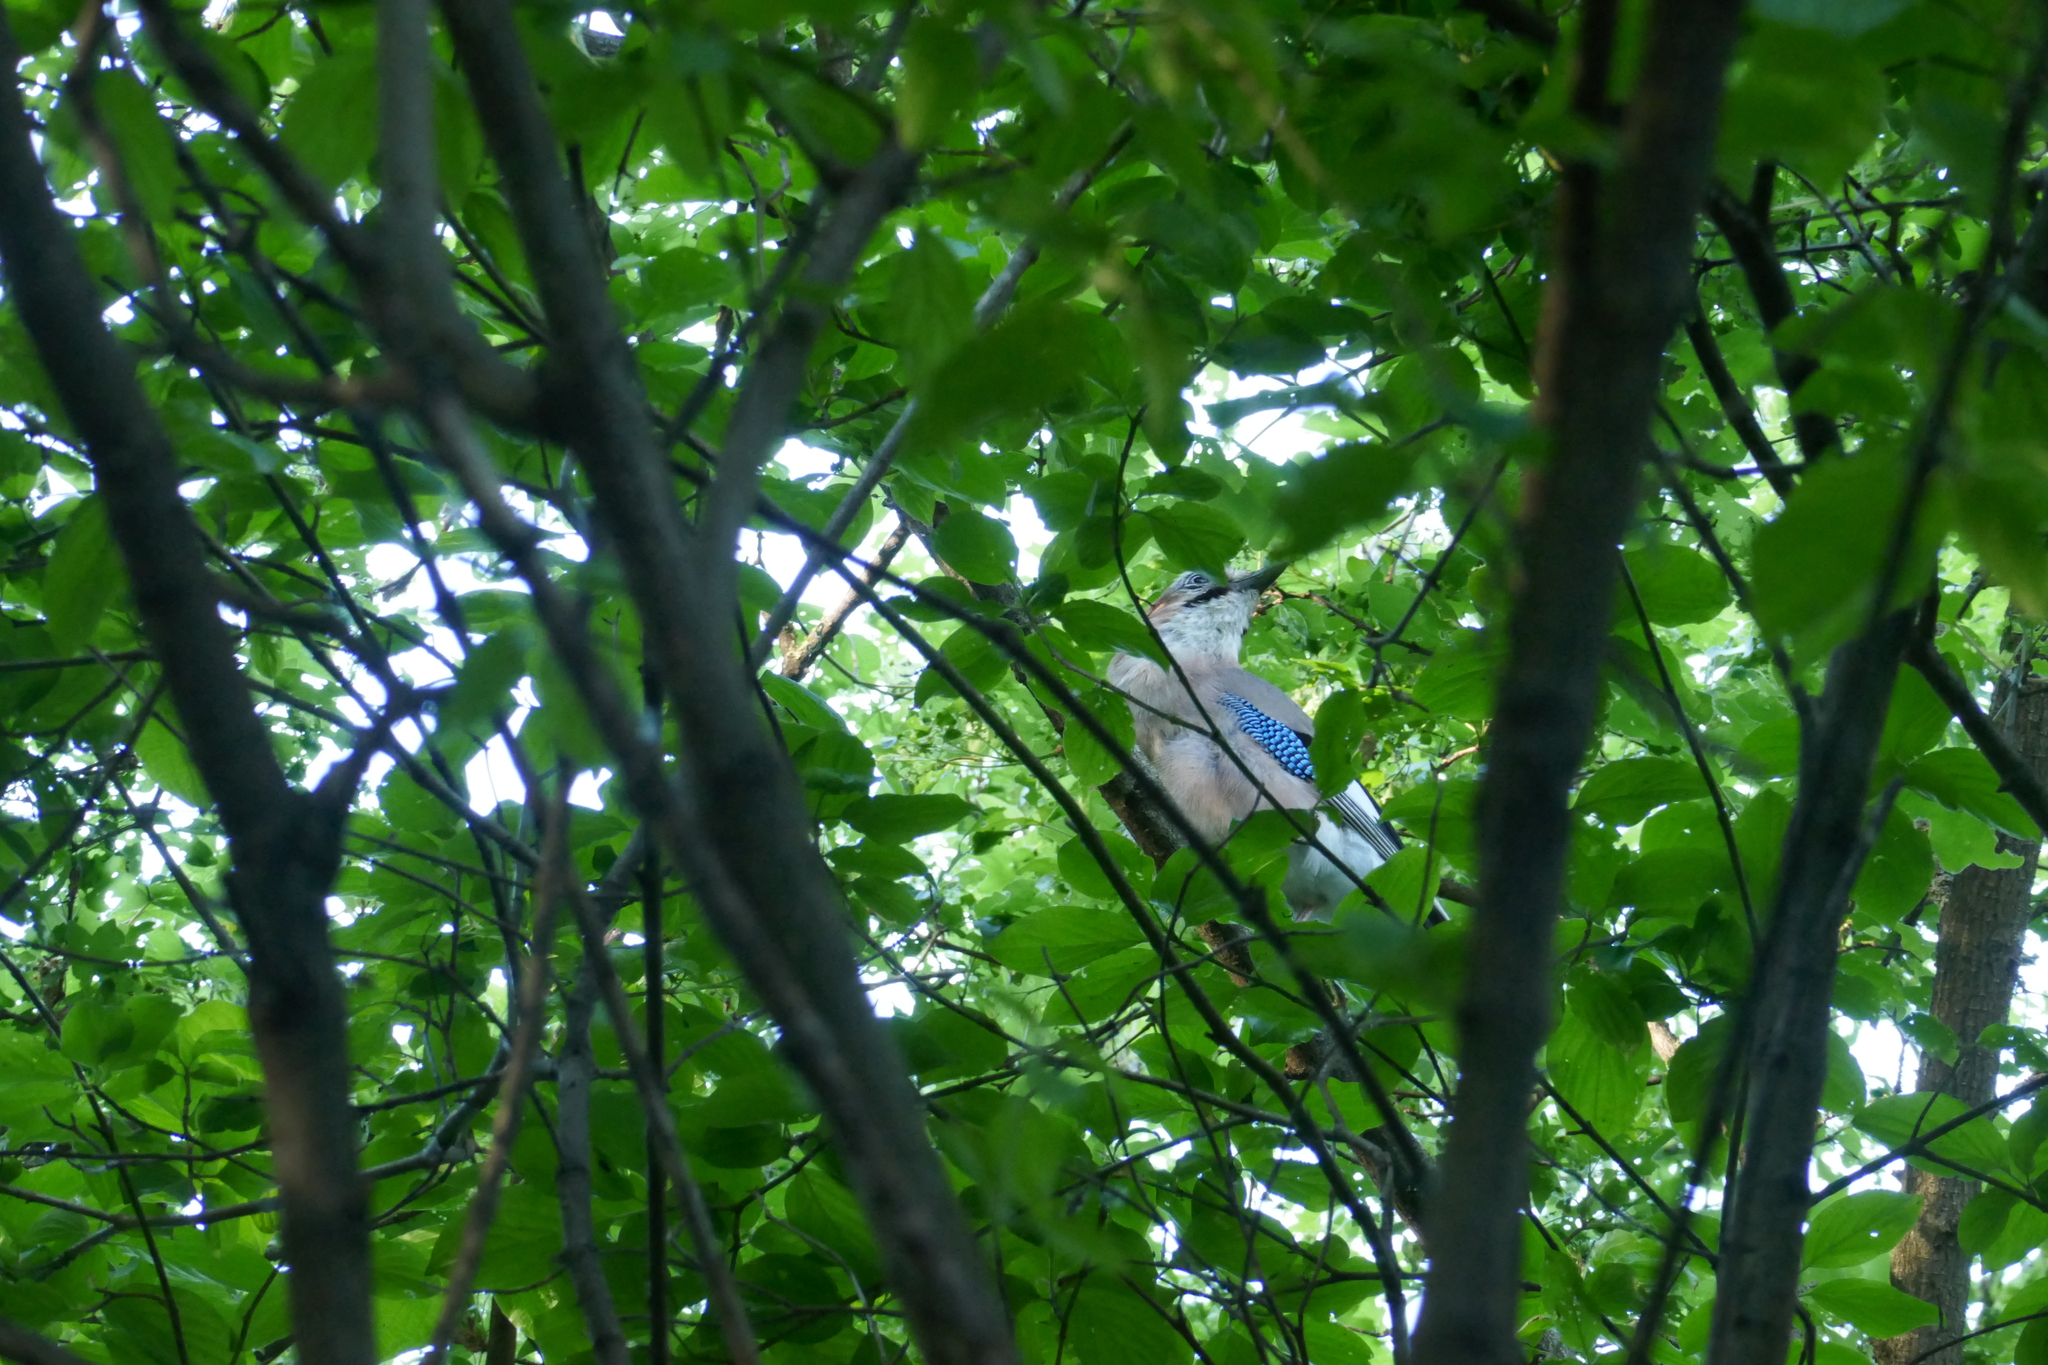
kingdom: Animalia
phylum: Chordata
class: Aves
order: Passeriformes
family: Corvidae
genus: Garrulus
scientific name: Garrulus glandarius
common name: Eurasian jay
